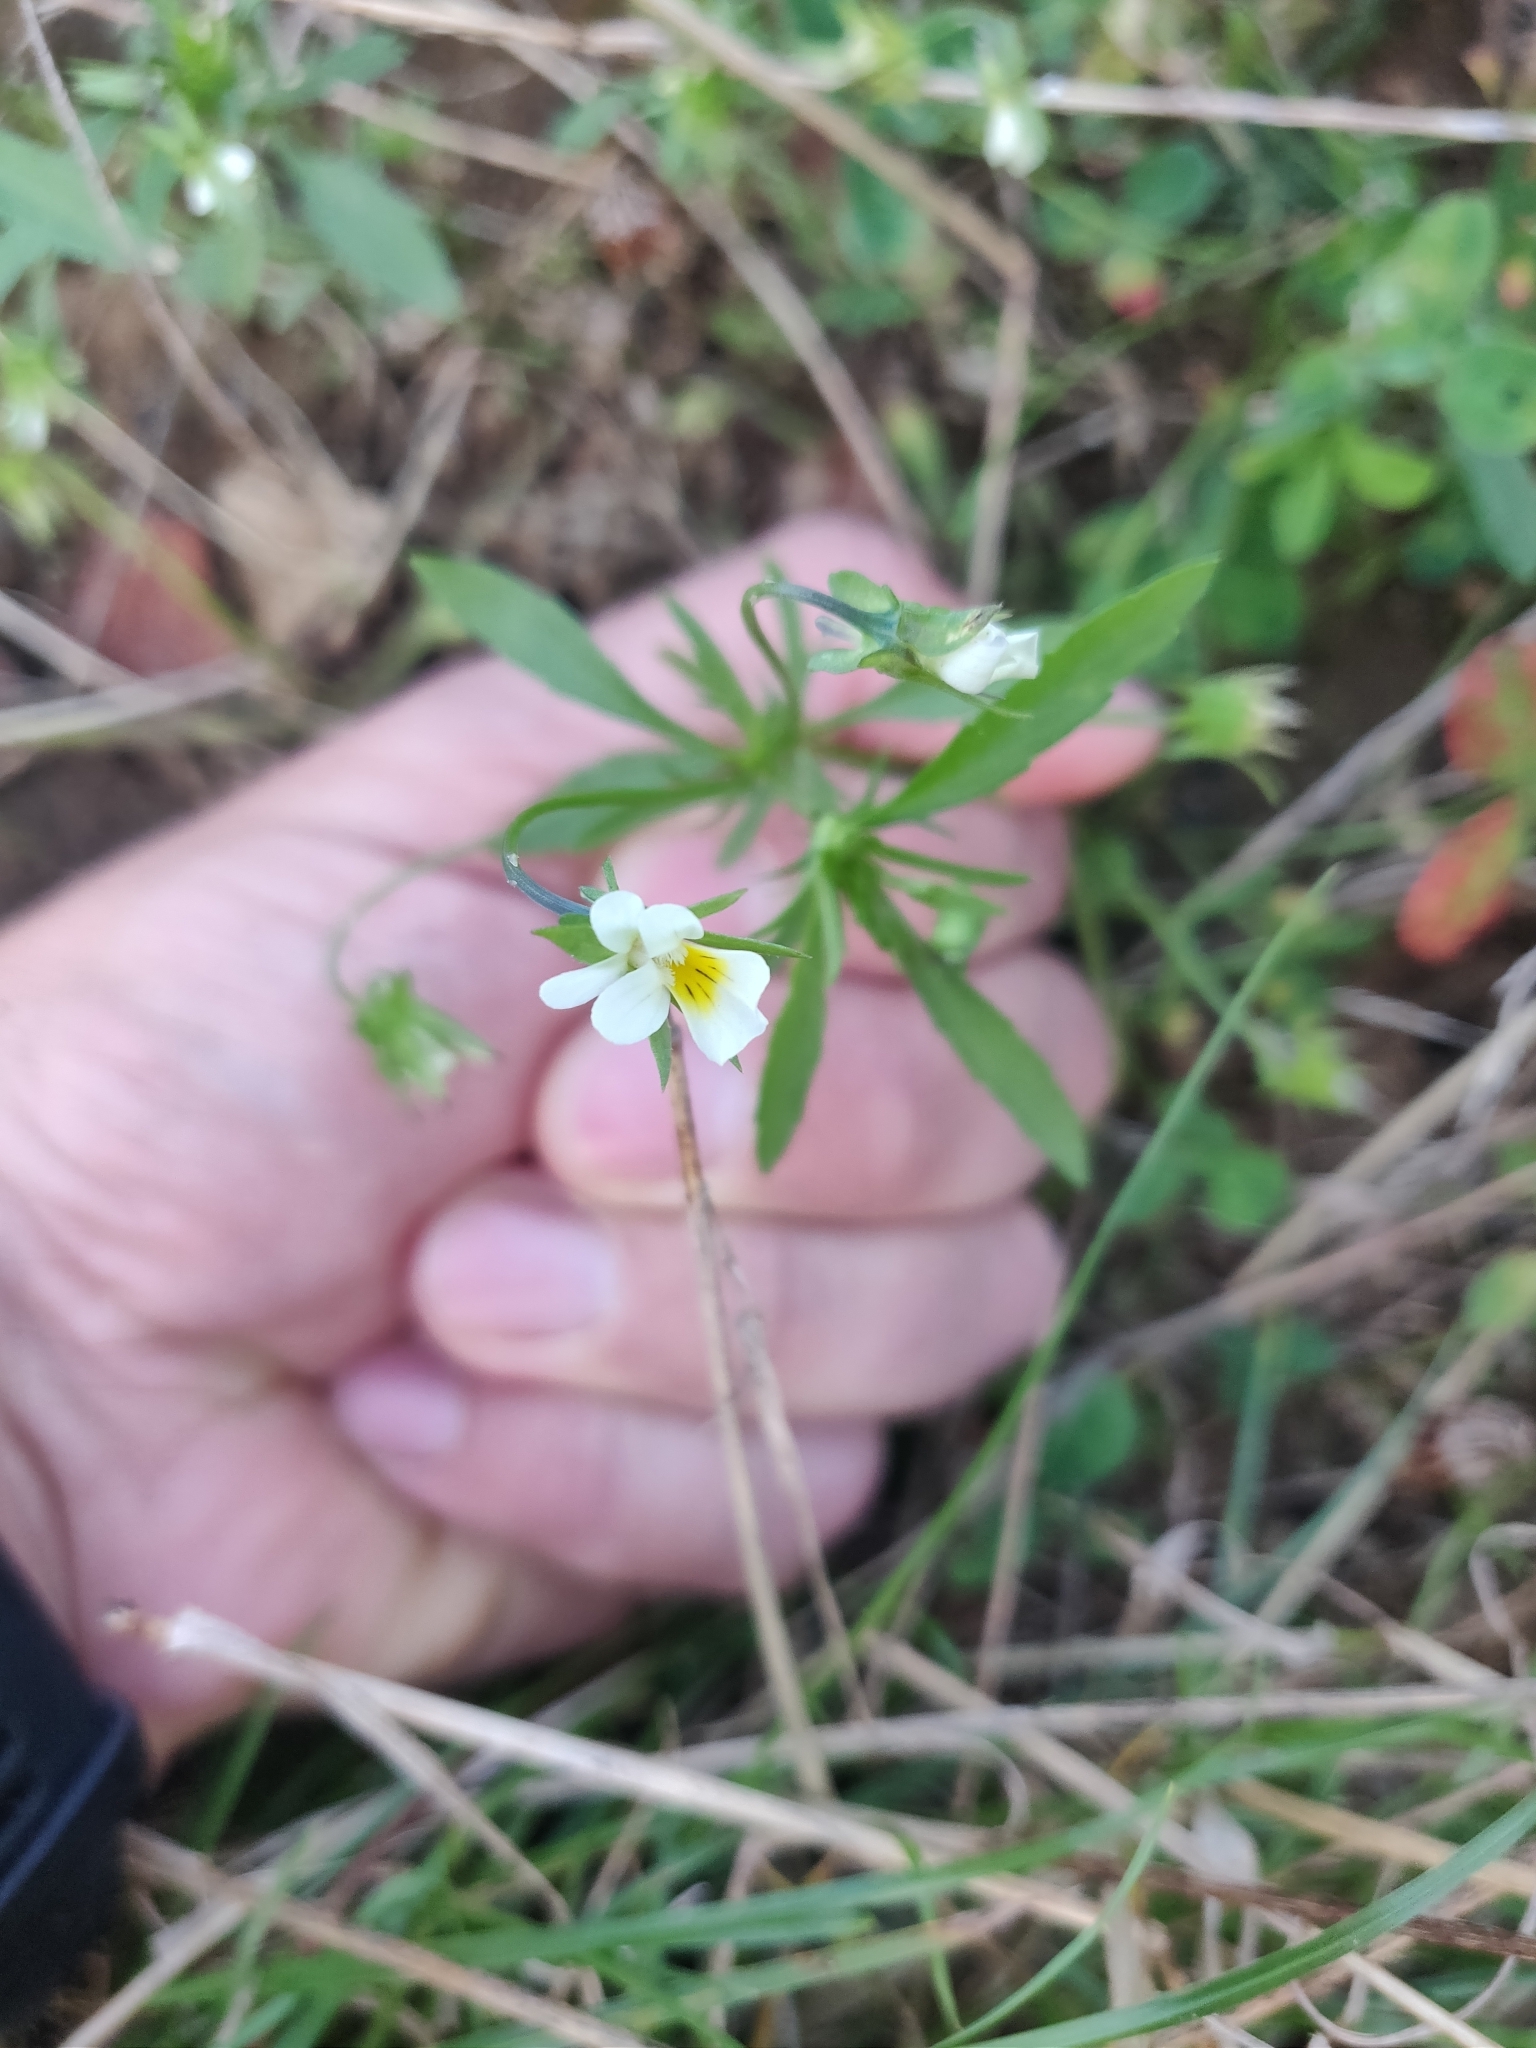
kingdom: Plantae
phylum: Tracheophyta
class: Magnoliopsida
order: Malpighiales
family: Violaceae
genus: Viola
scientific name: Viola arvensis
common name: Field pansy
